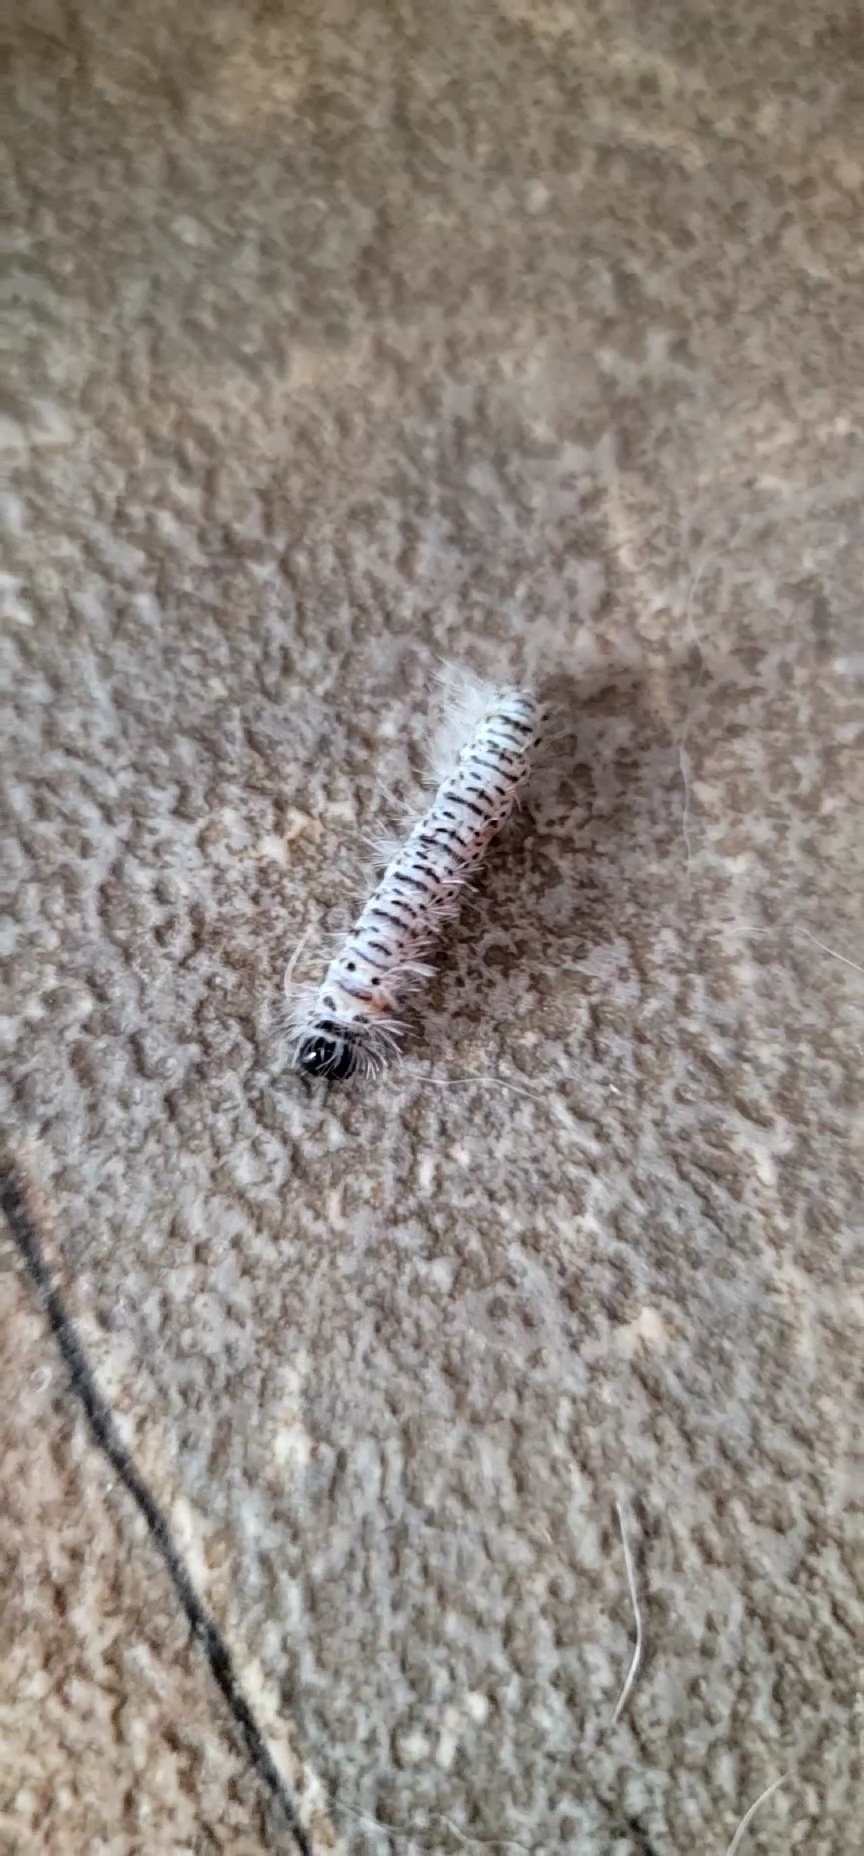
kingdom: Animalia
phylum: Arthropoda
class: Insecta
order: Lepidoptera
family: Erebidae
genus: Lophocampa
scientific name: Lophocampa caryae
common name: Hickory tussock moth
